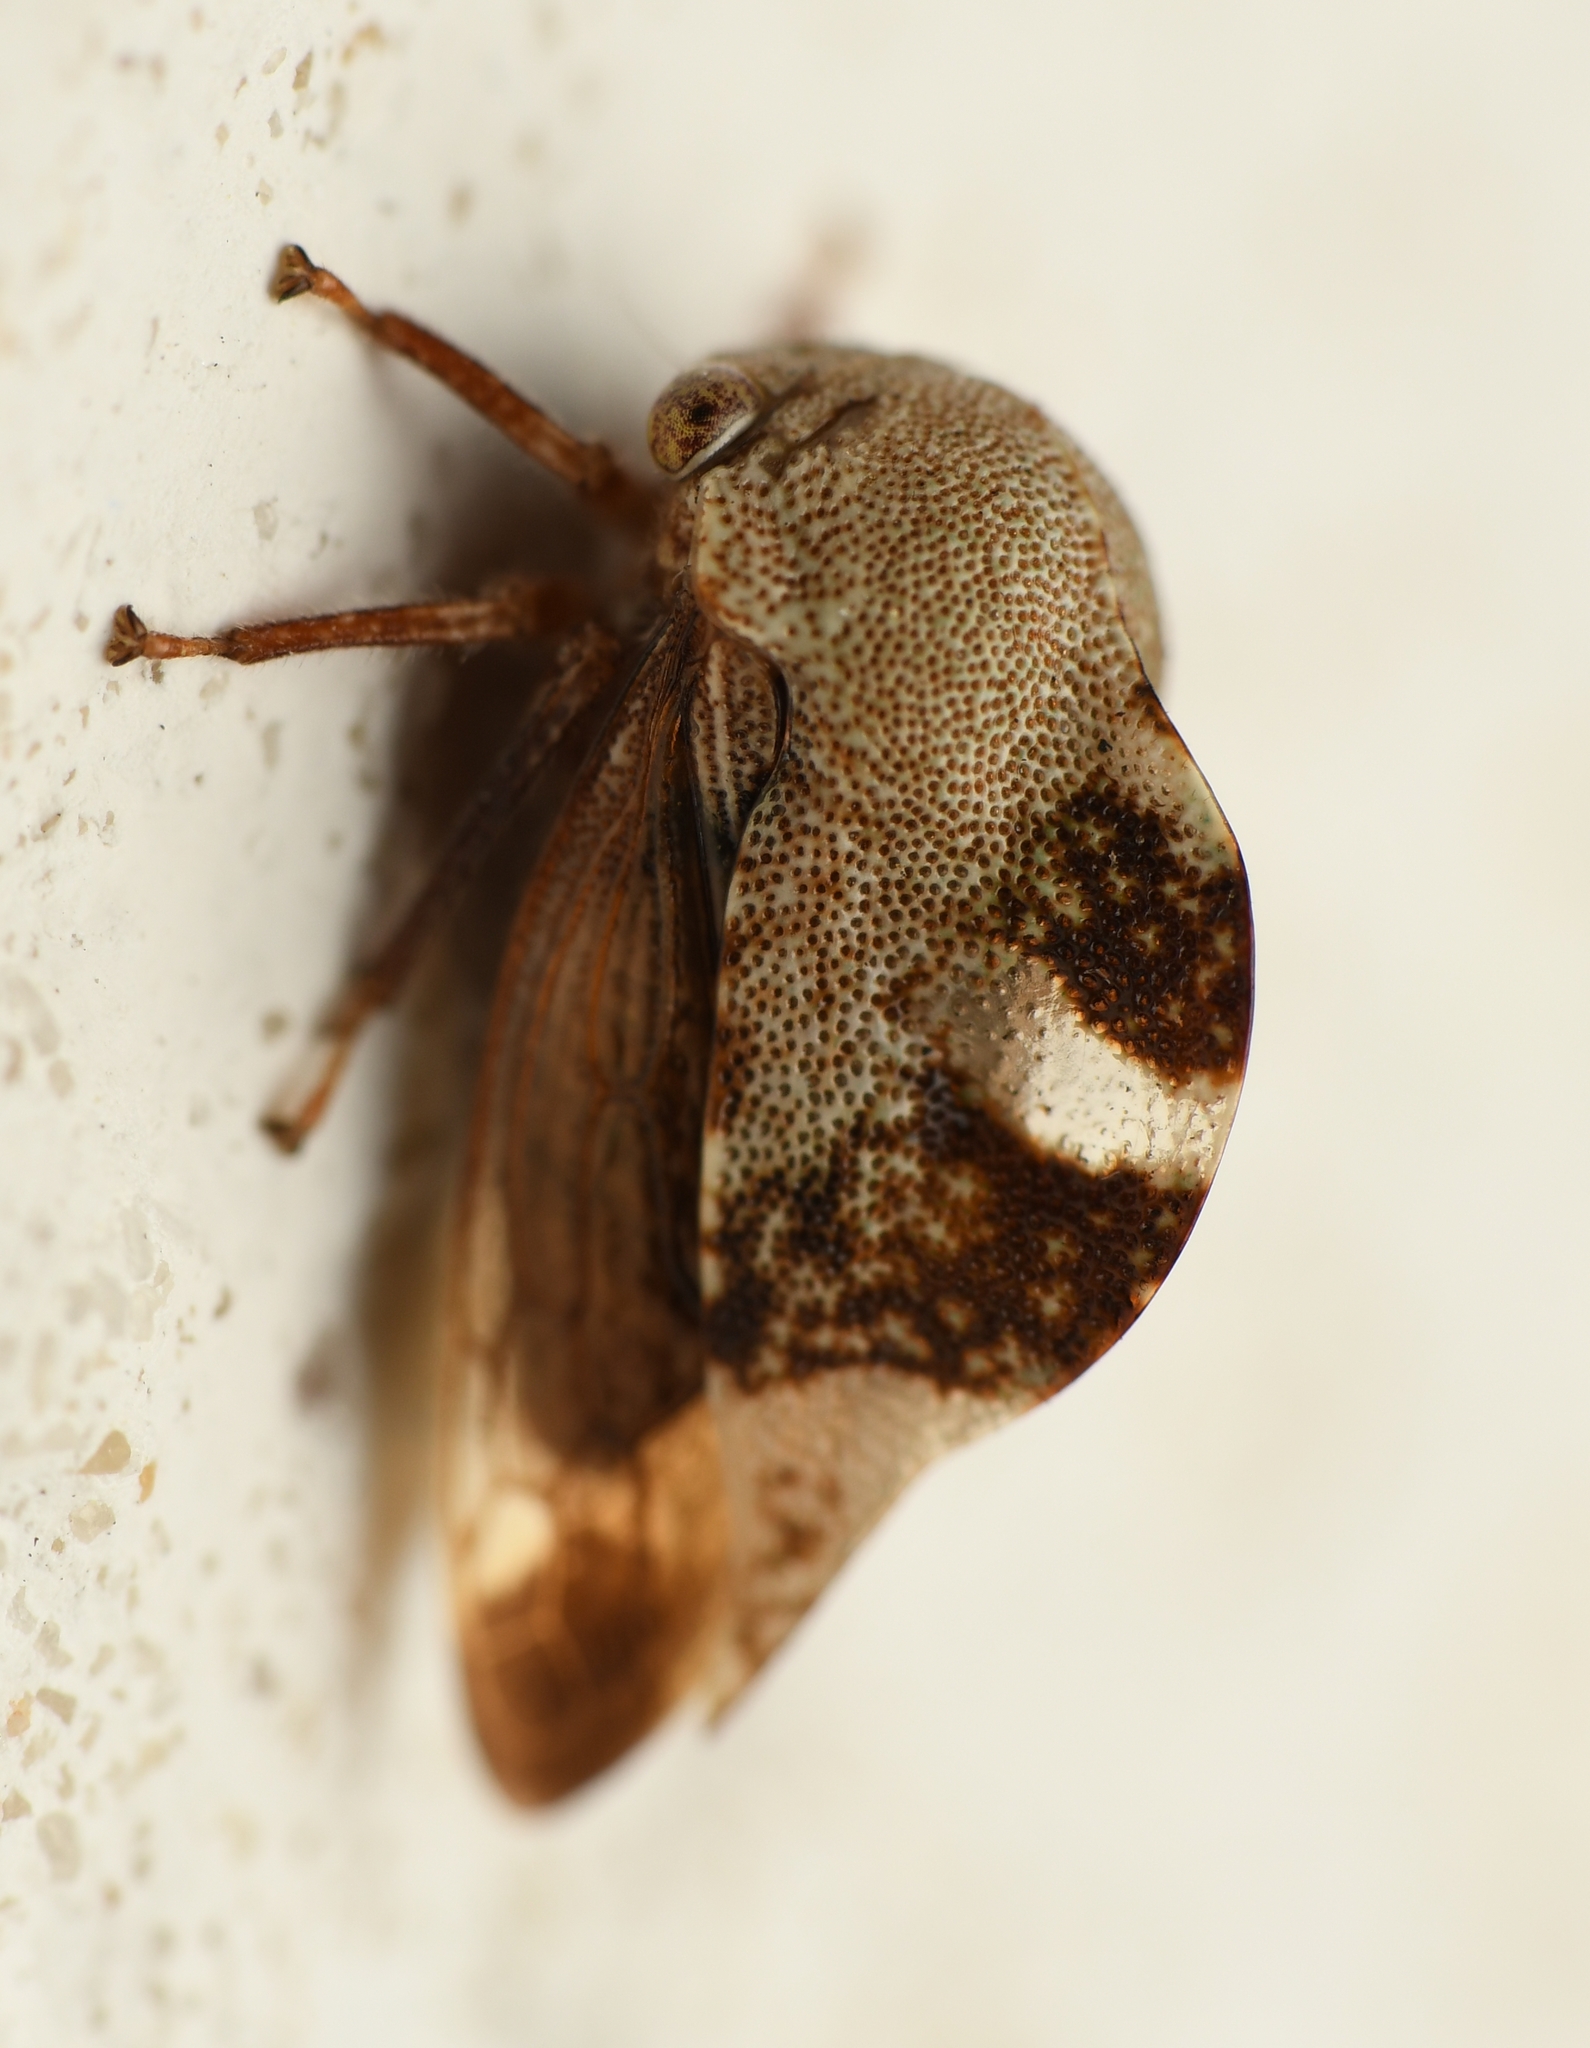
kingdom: Animalia
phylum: Arthropoda
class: Insecta
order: Hemiptera
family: Membracidae
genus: Cyrtolobus
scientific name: Cyrtolobus tuberosa
